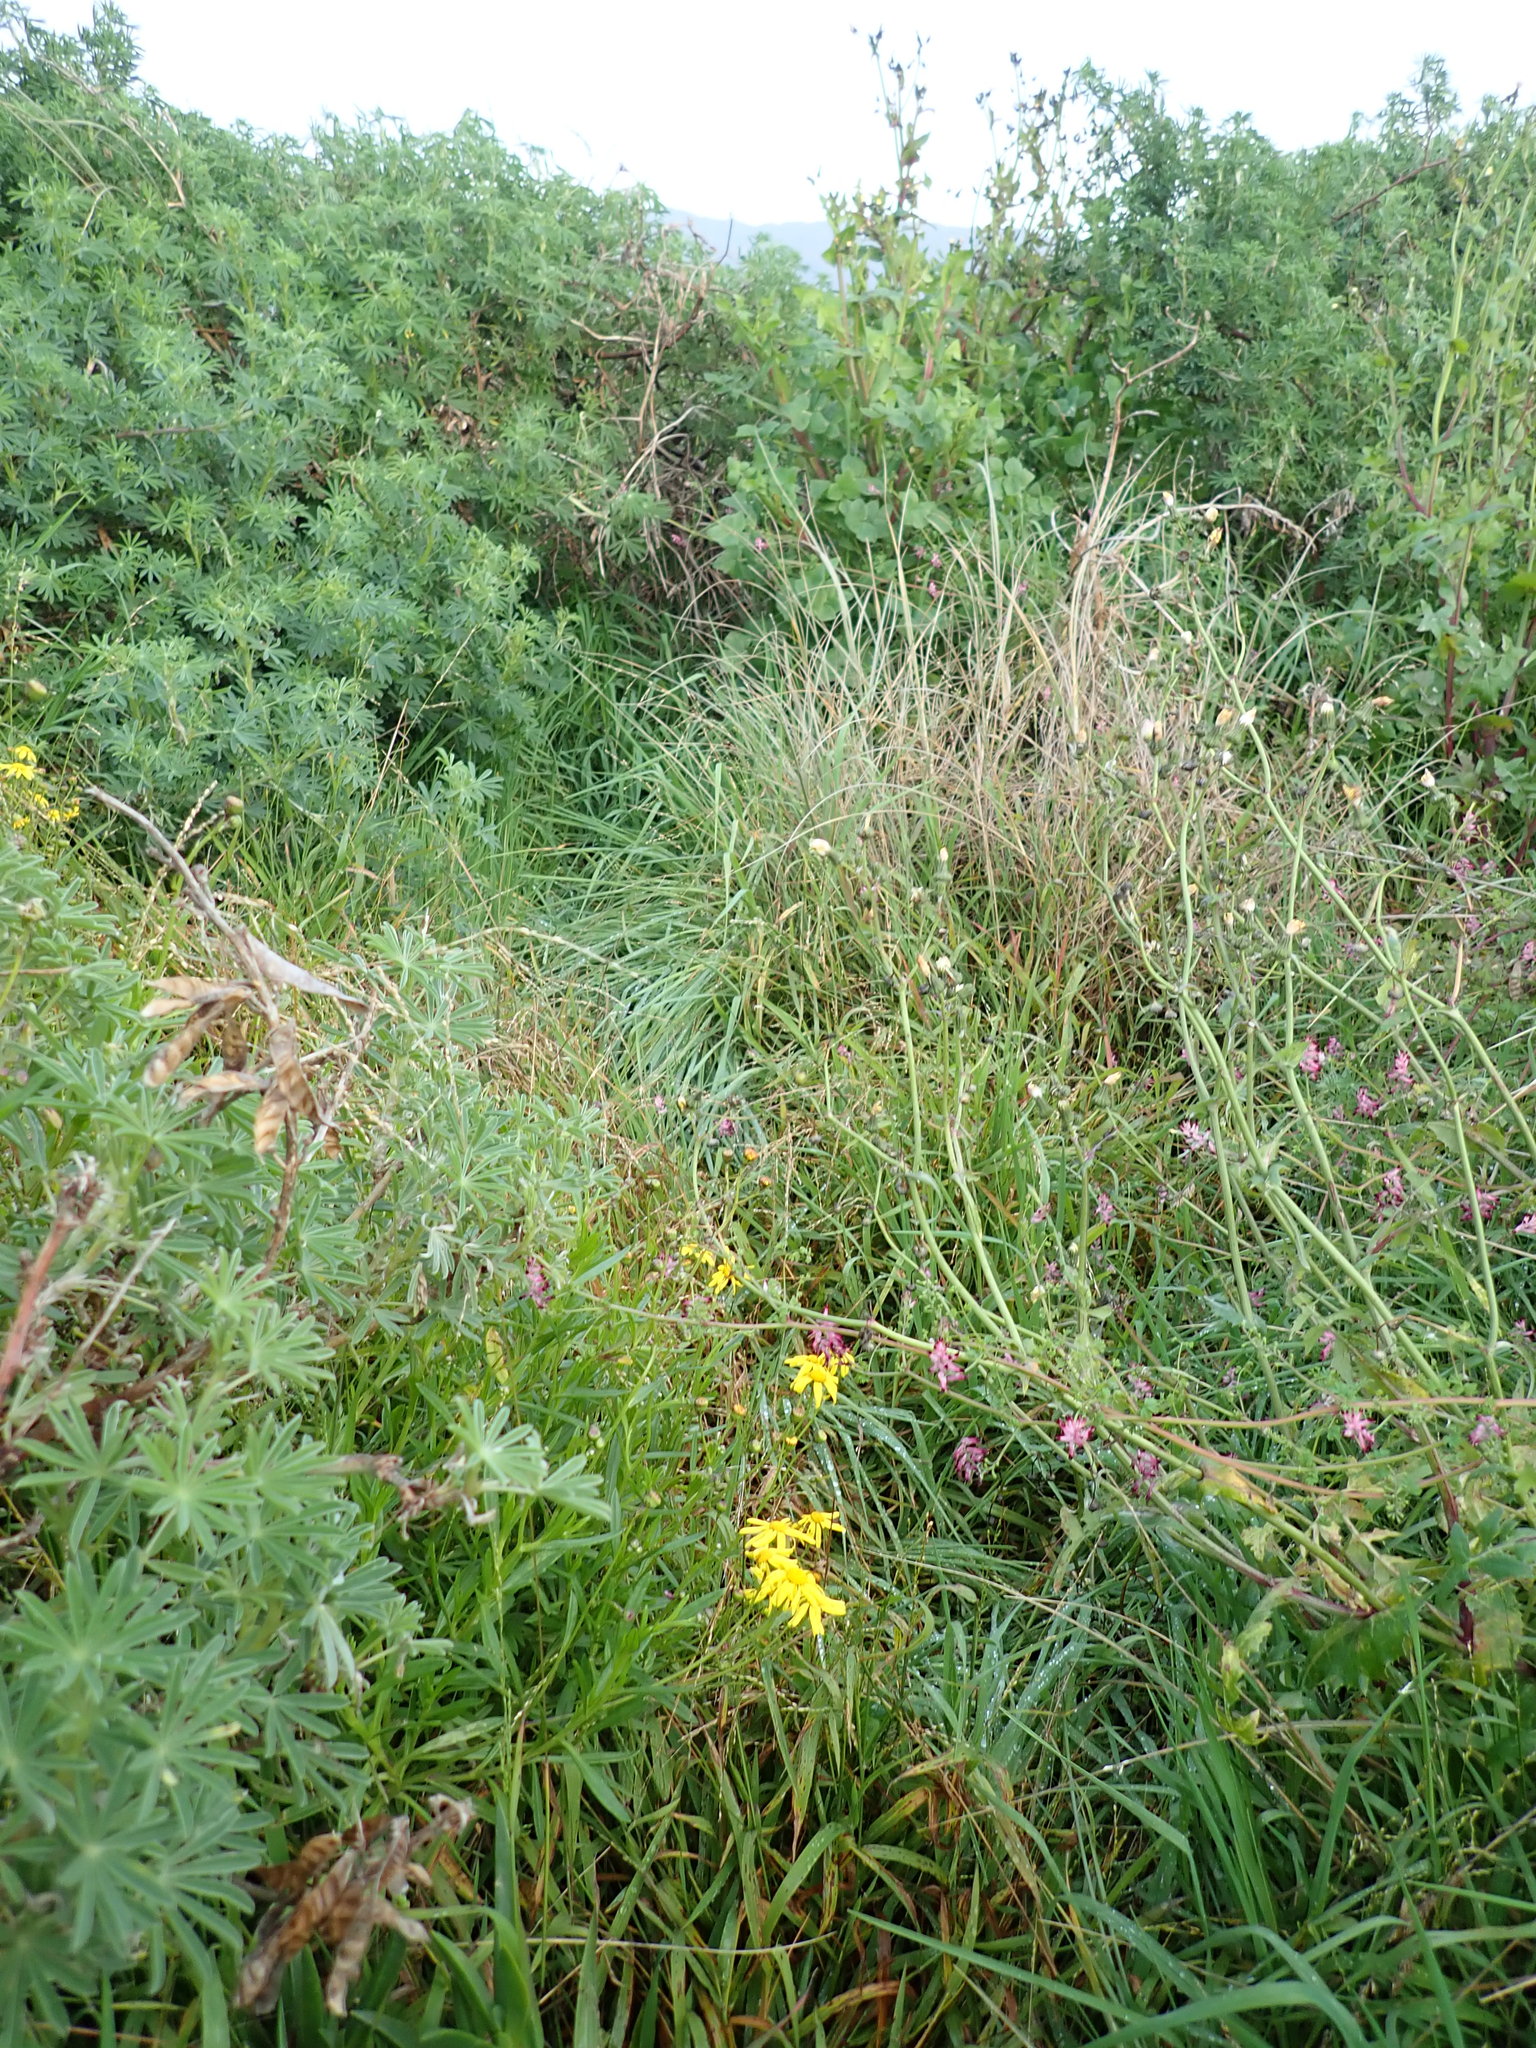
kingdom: Plantae
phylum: Tracheophyta
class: Magnoliopsida
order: Asterales
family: Asteraceae
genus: Senecio
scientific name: Senecio skirrhodon
